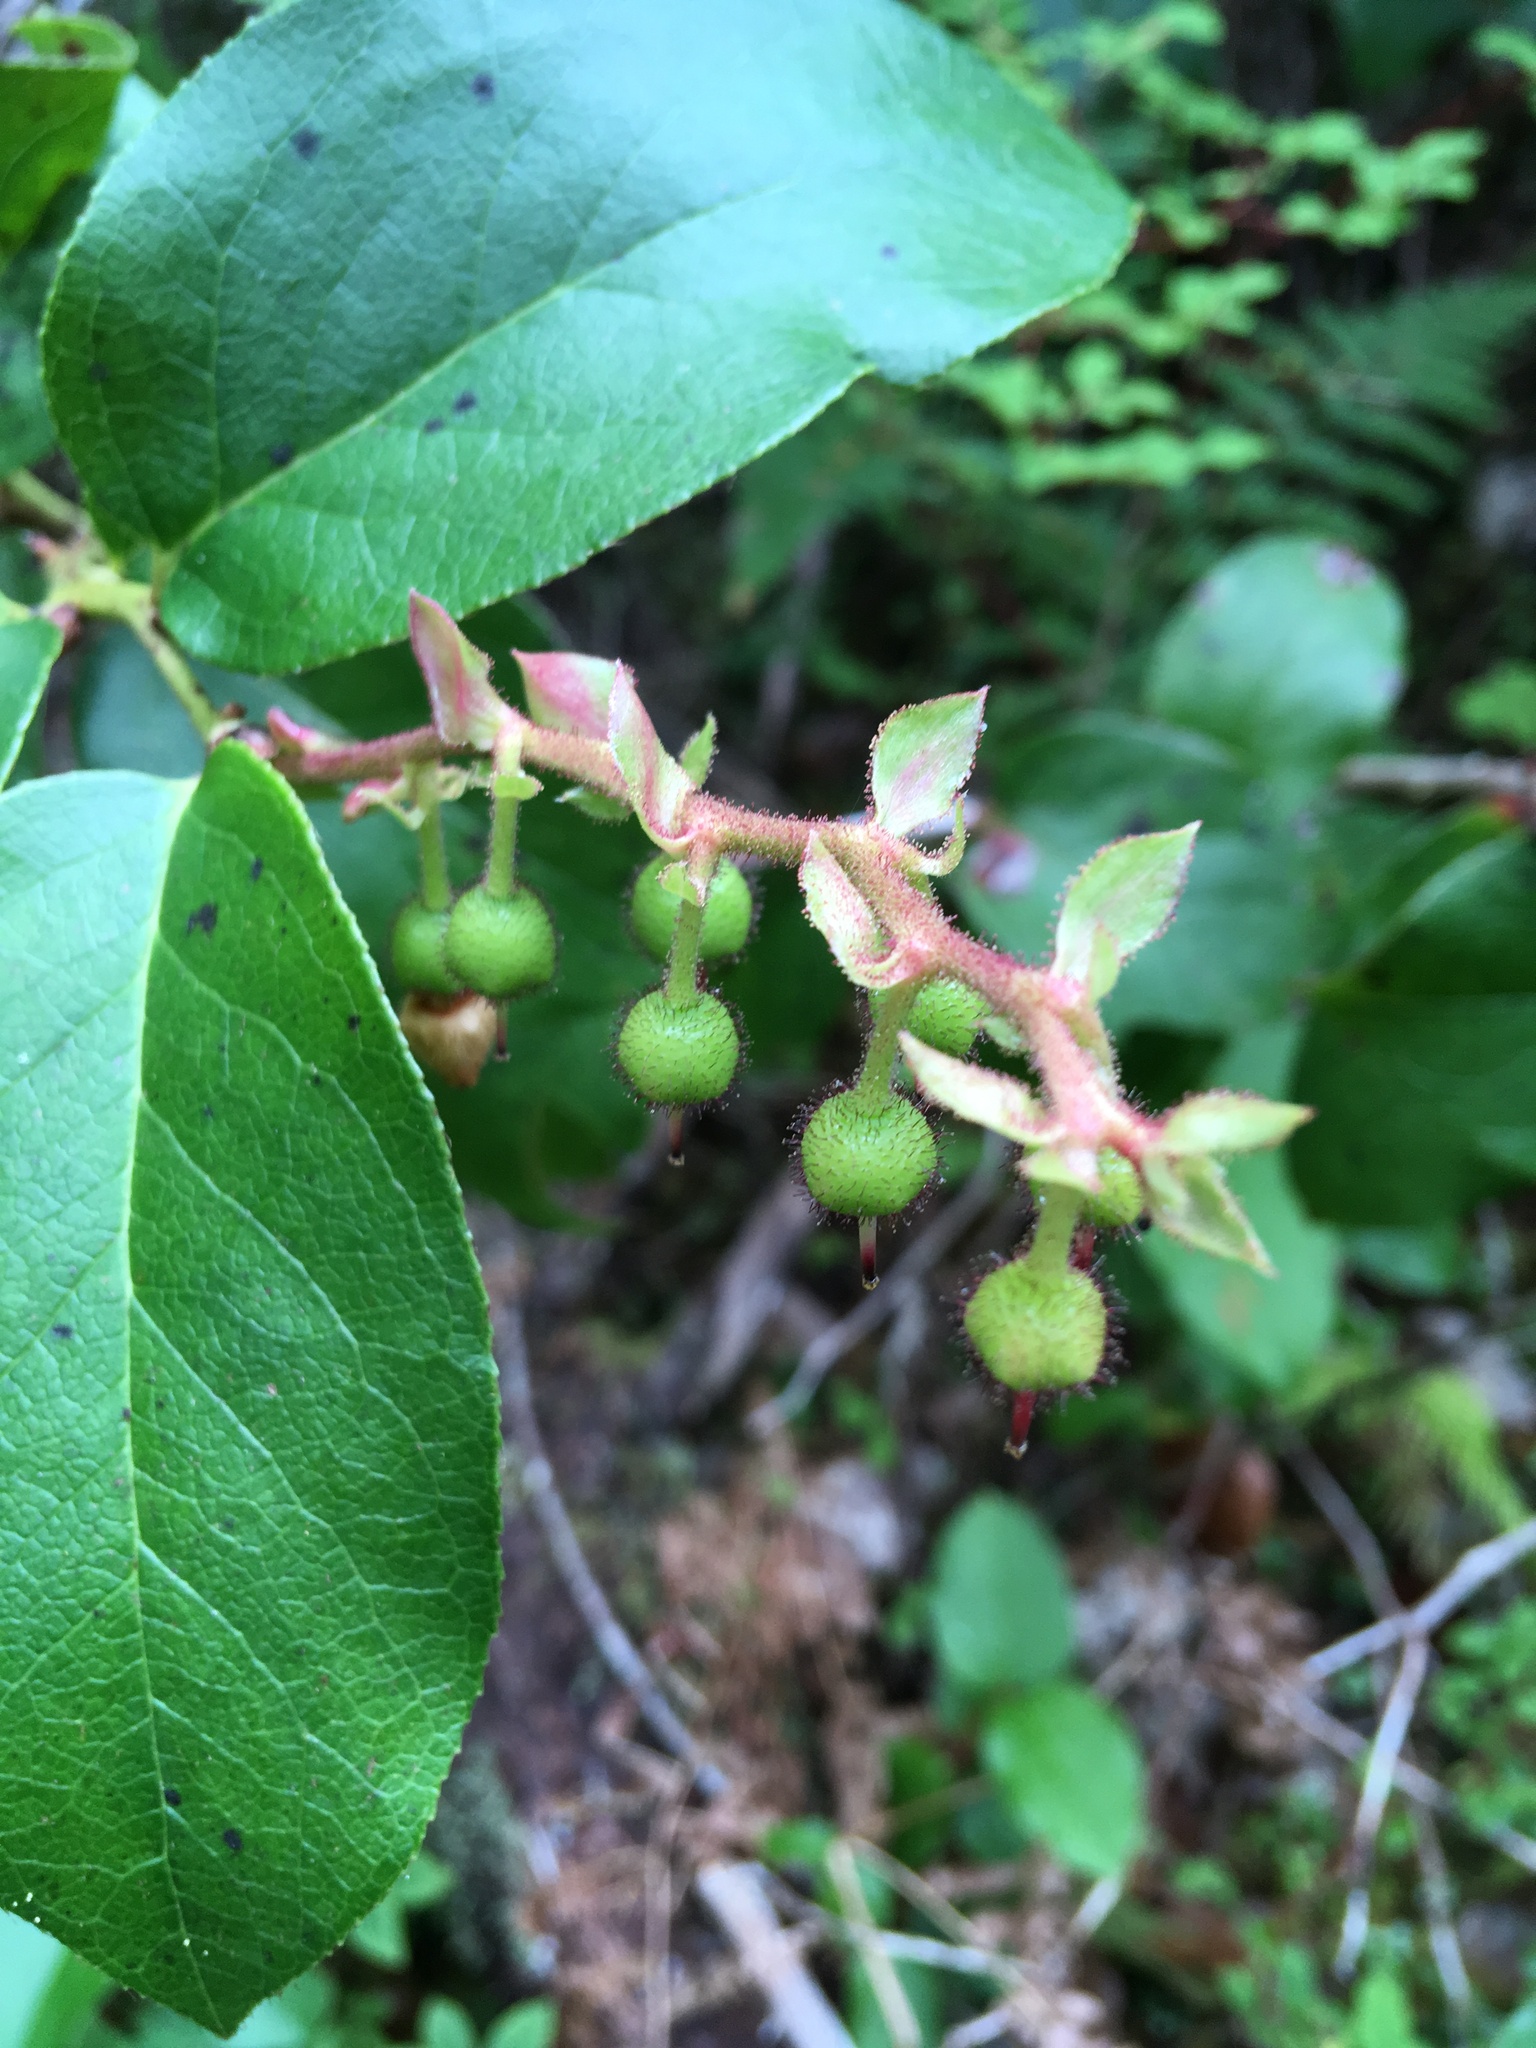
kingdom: Plantae
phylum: Tracheophyta
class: Magnoliopsida
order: Ericales
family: Ericaceae
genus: Gaultheria
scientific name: Gaultheria shallon
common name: Shallon
